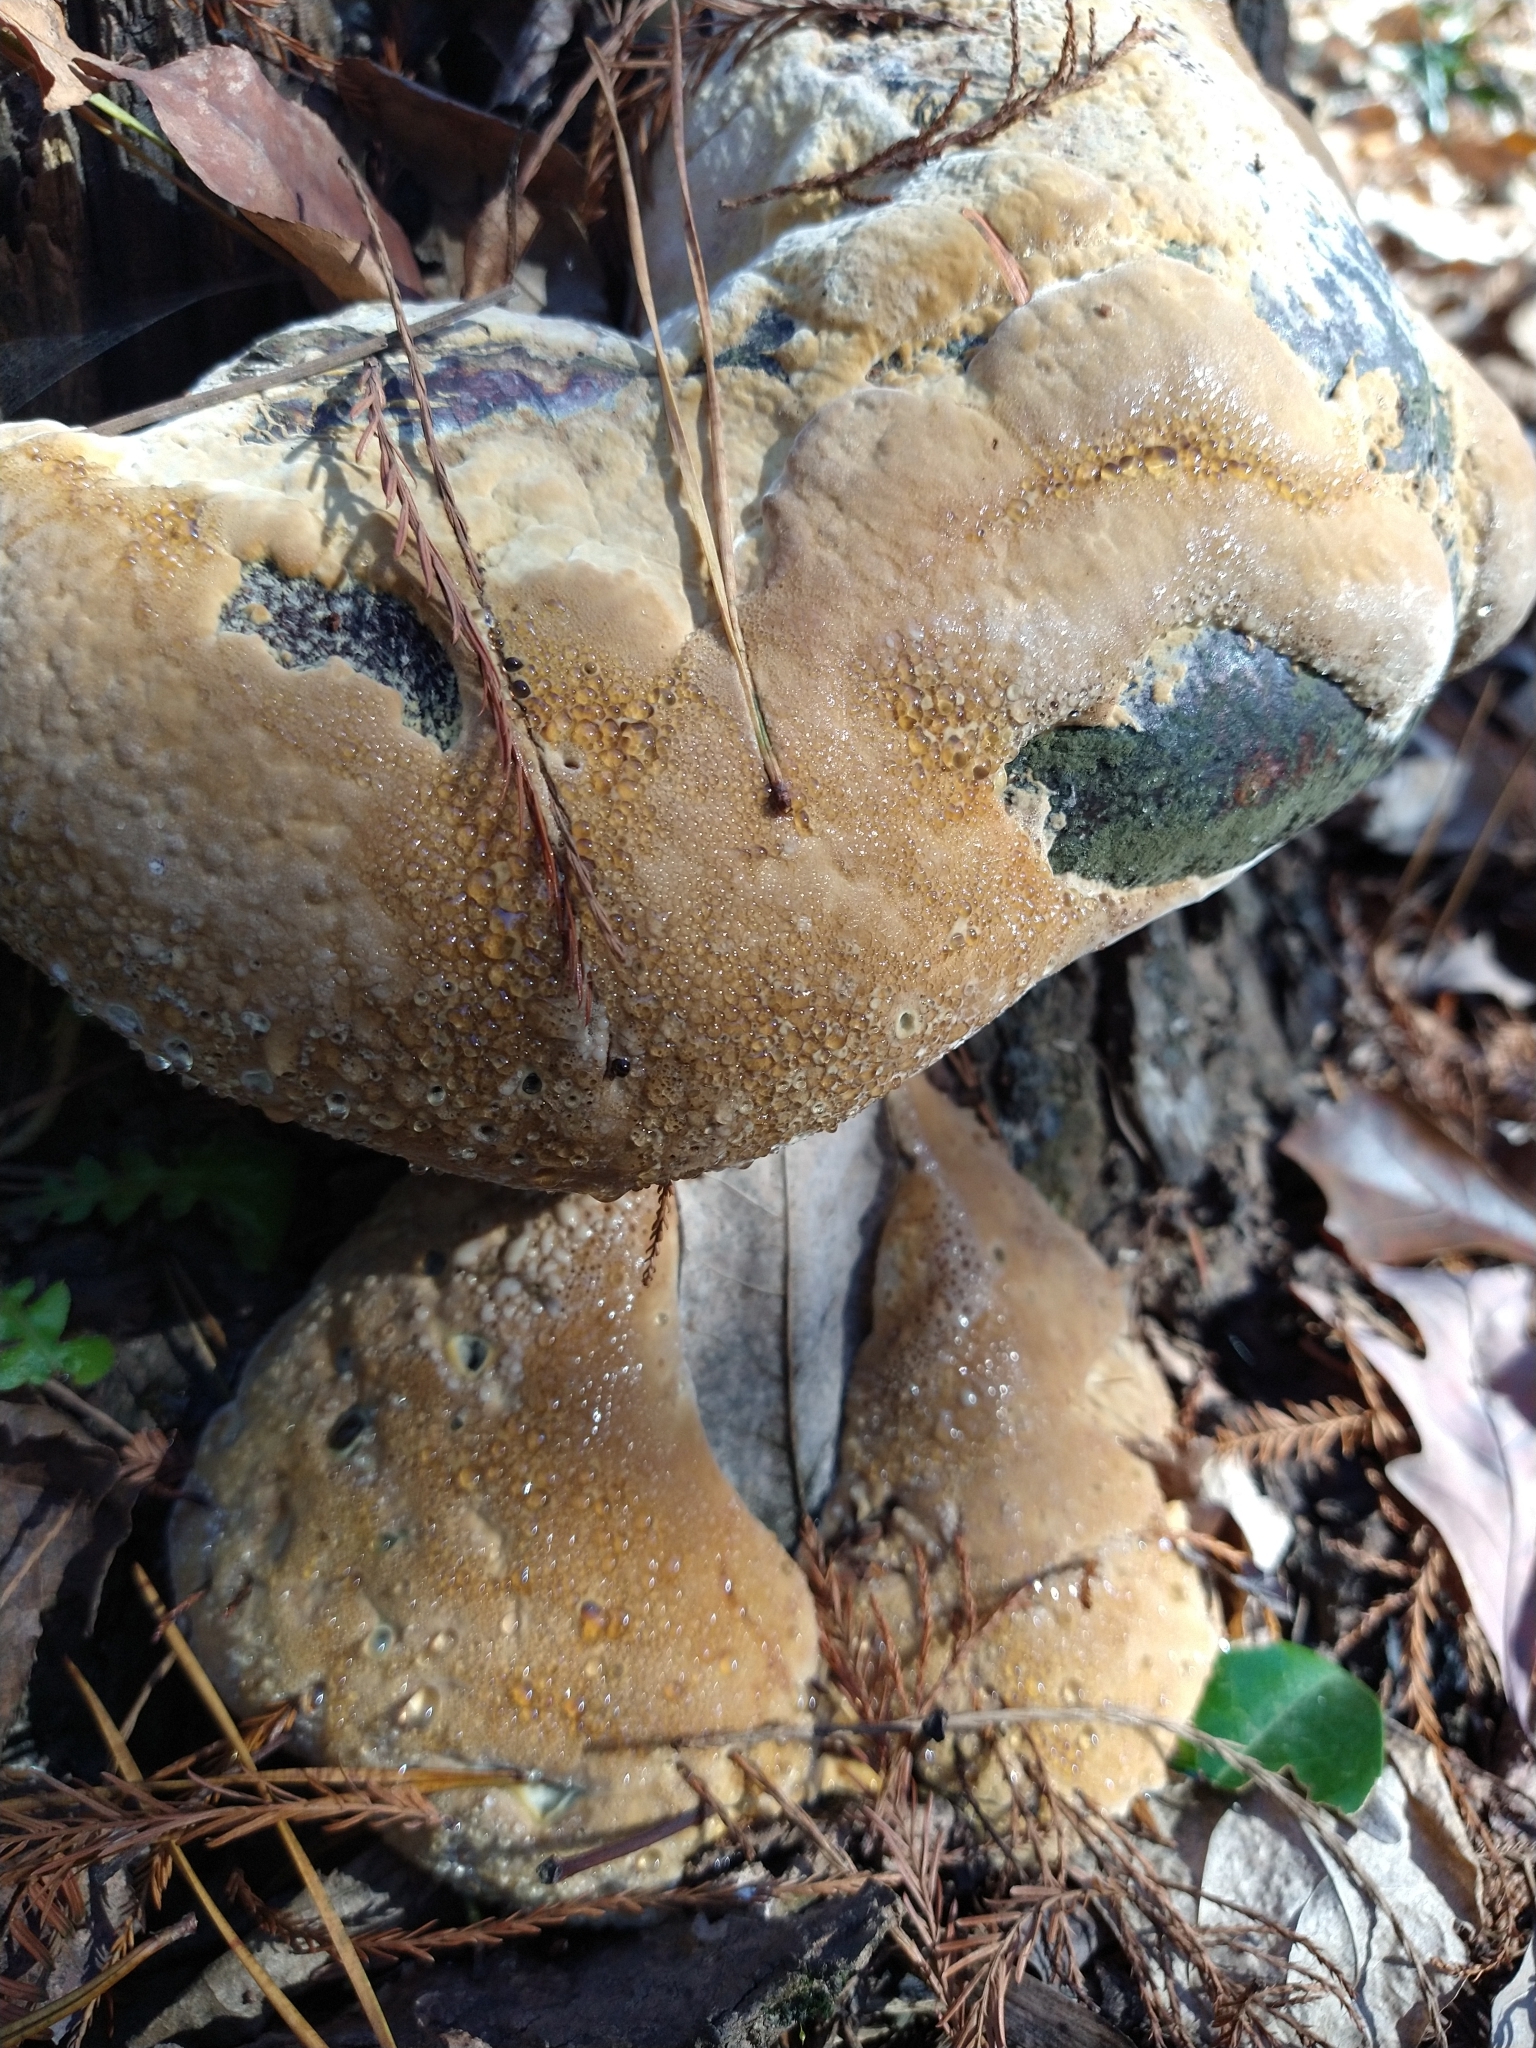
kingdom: Fungi
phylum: Basidiomycota
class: Agaricomycetes
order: Hymenochaetales
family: Hymenochaetaceae
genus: Pseudoinonotus
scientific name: Pseudoinonotus dryadeus
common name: Oak bracket
